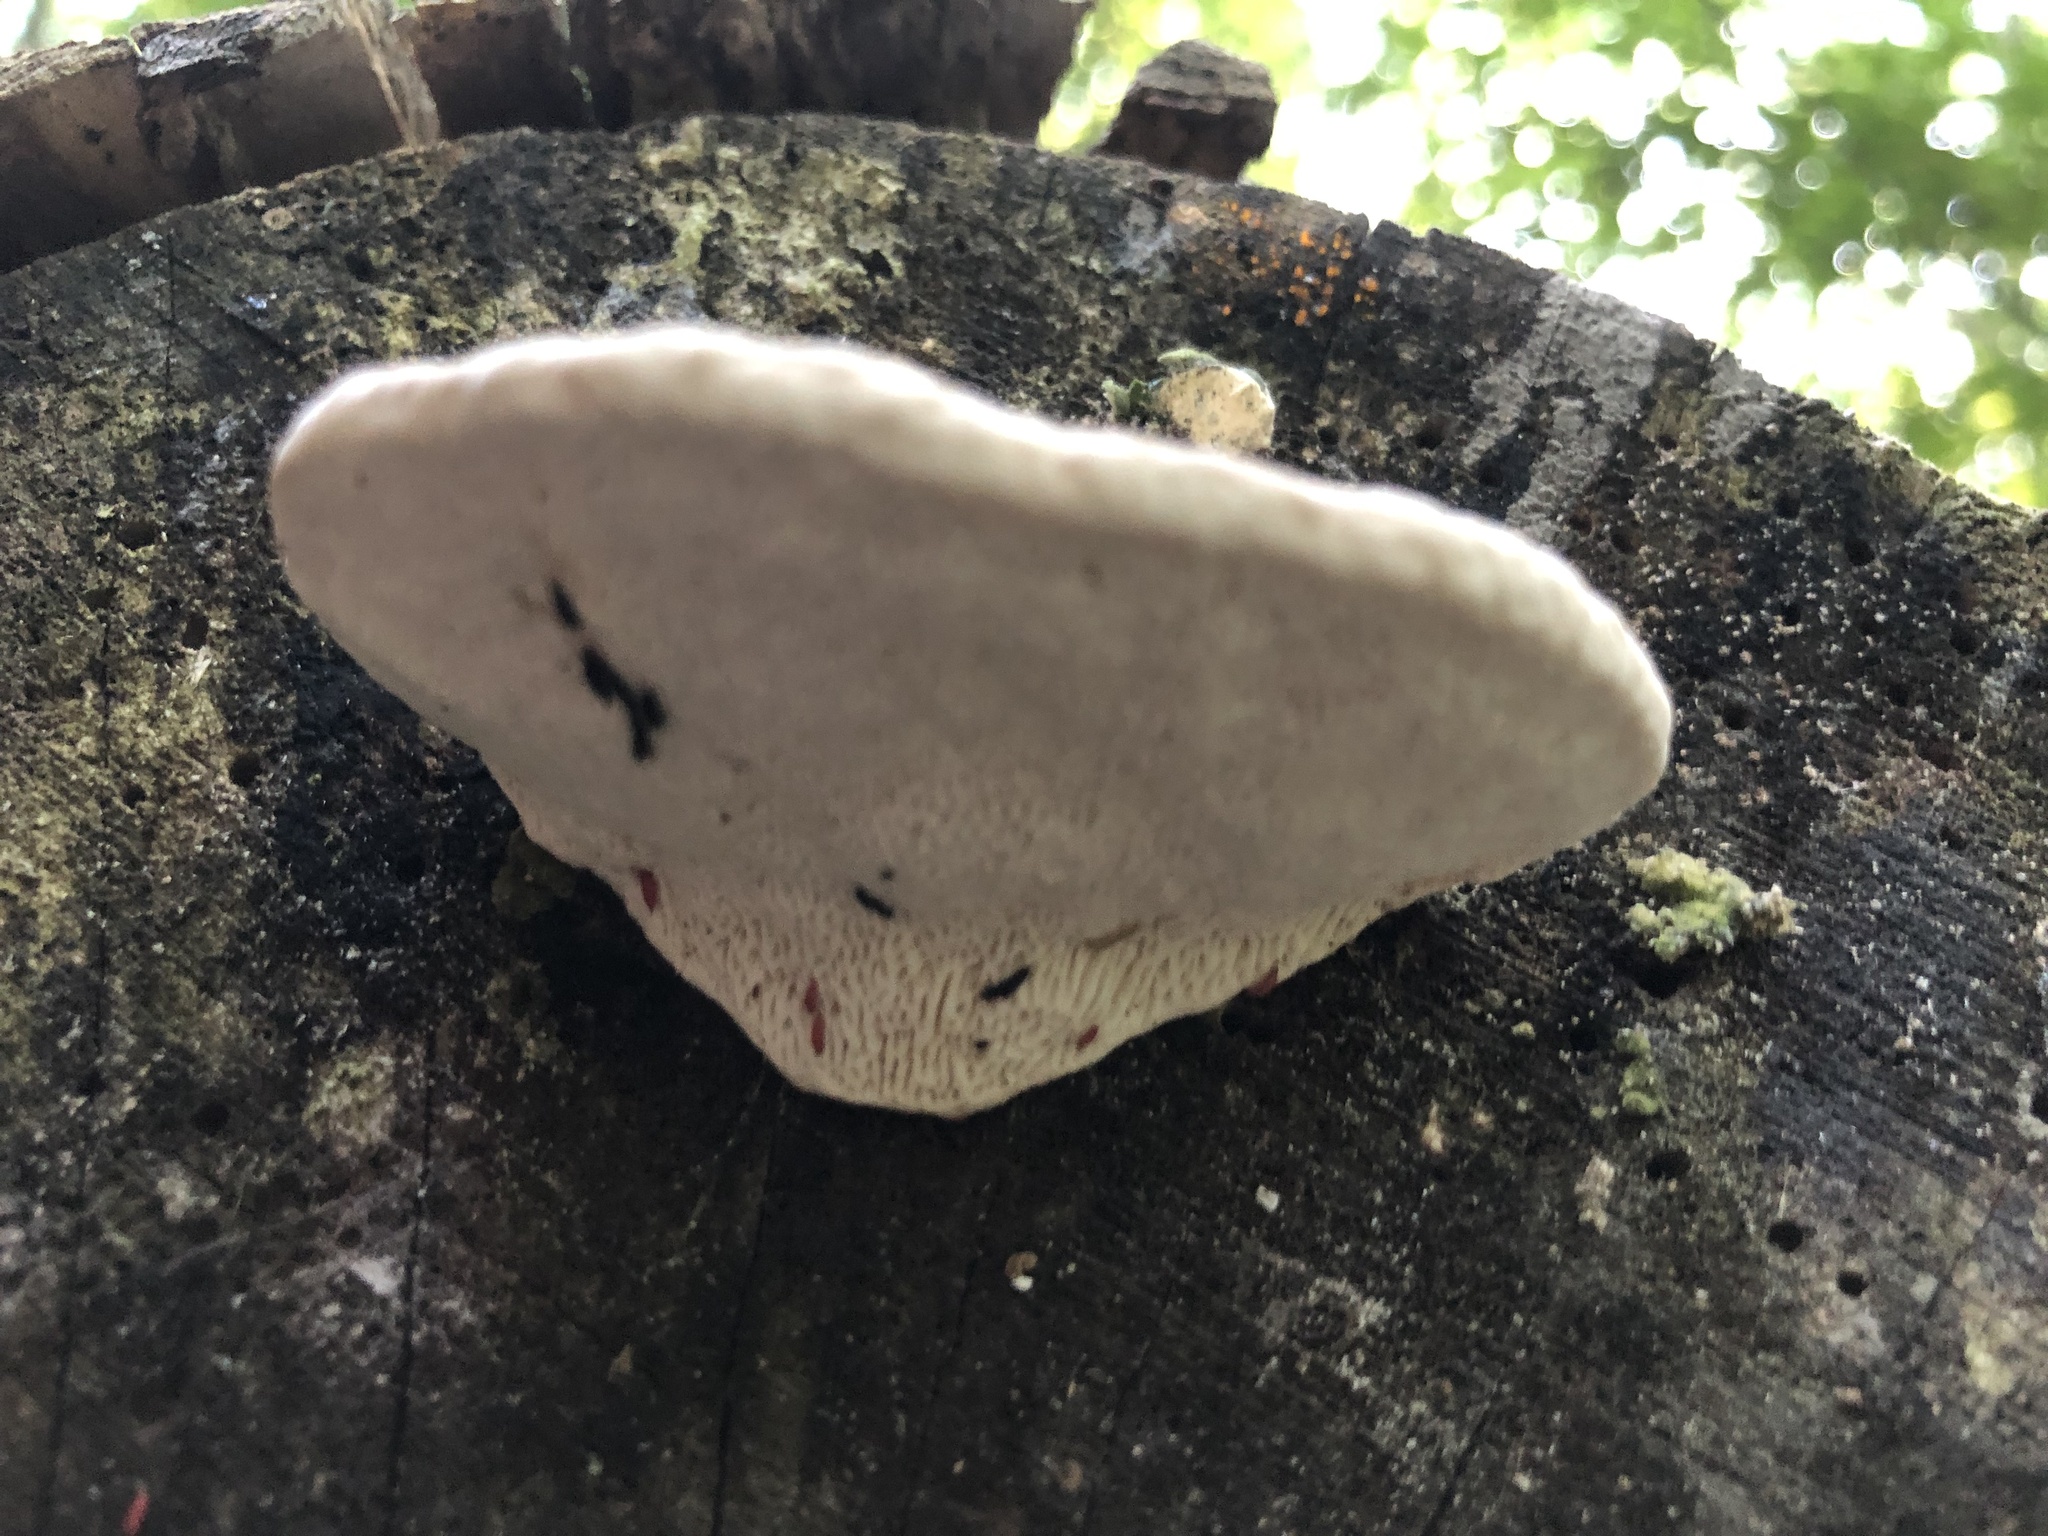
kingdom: Fungi
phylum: Basidiomycota
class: Agaricomycetes
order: Polyporales
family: Polyporaceae
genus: Trametes
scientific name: Trametes gibbosa
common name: Lumpy bracket
